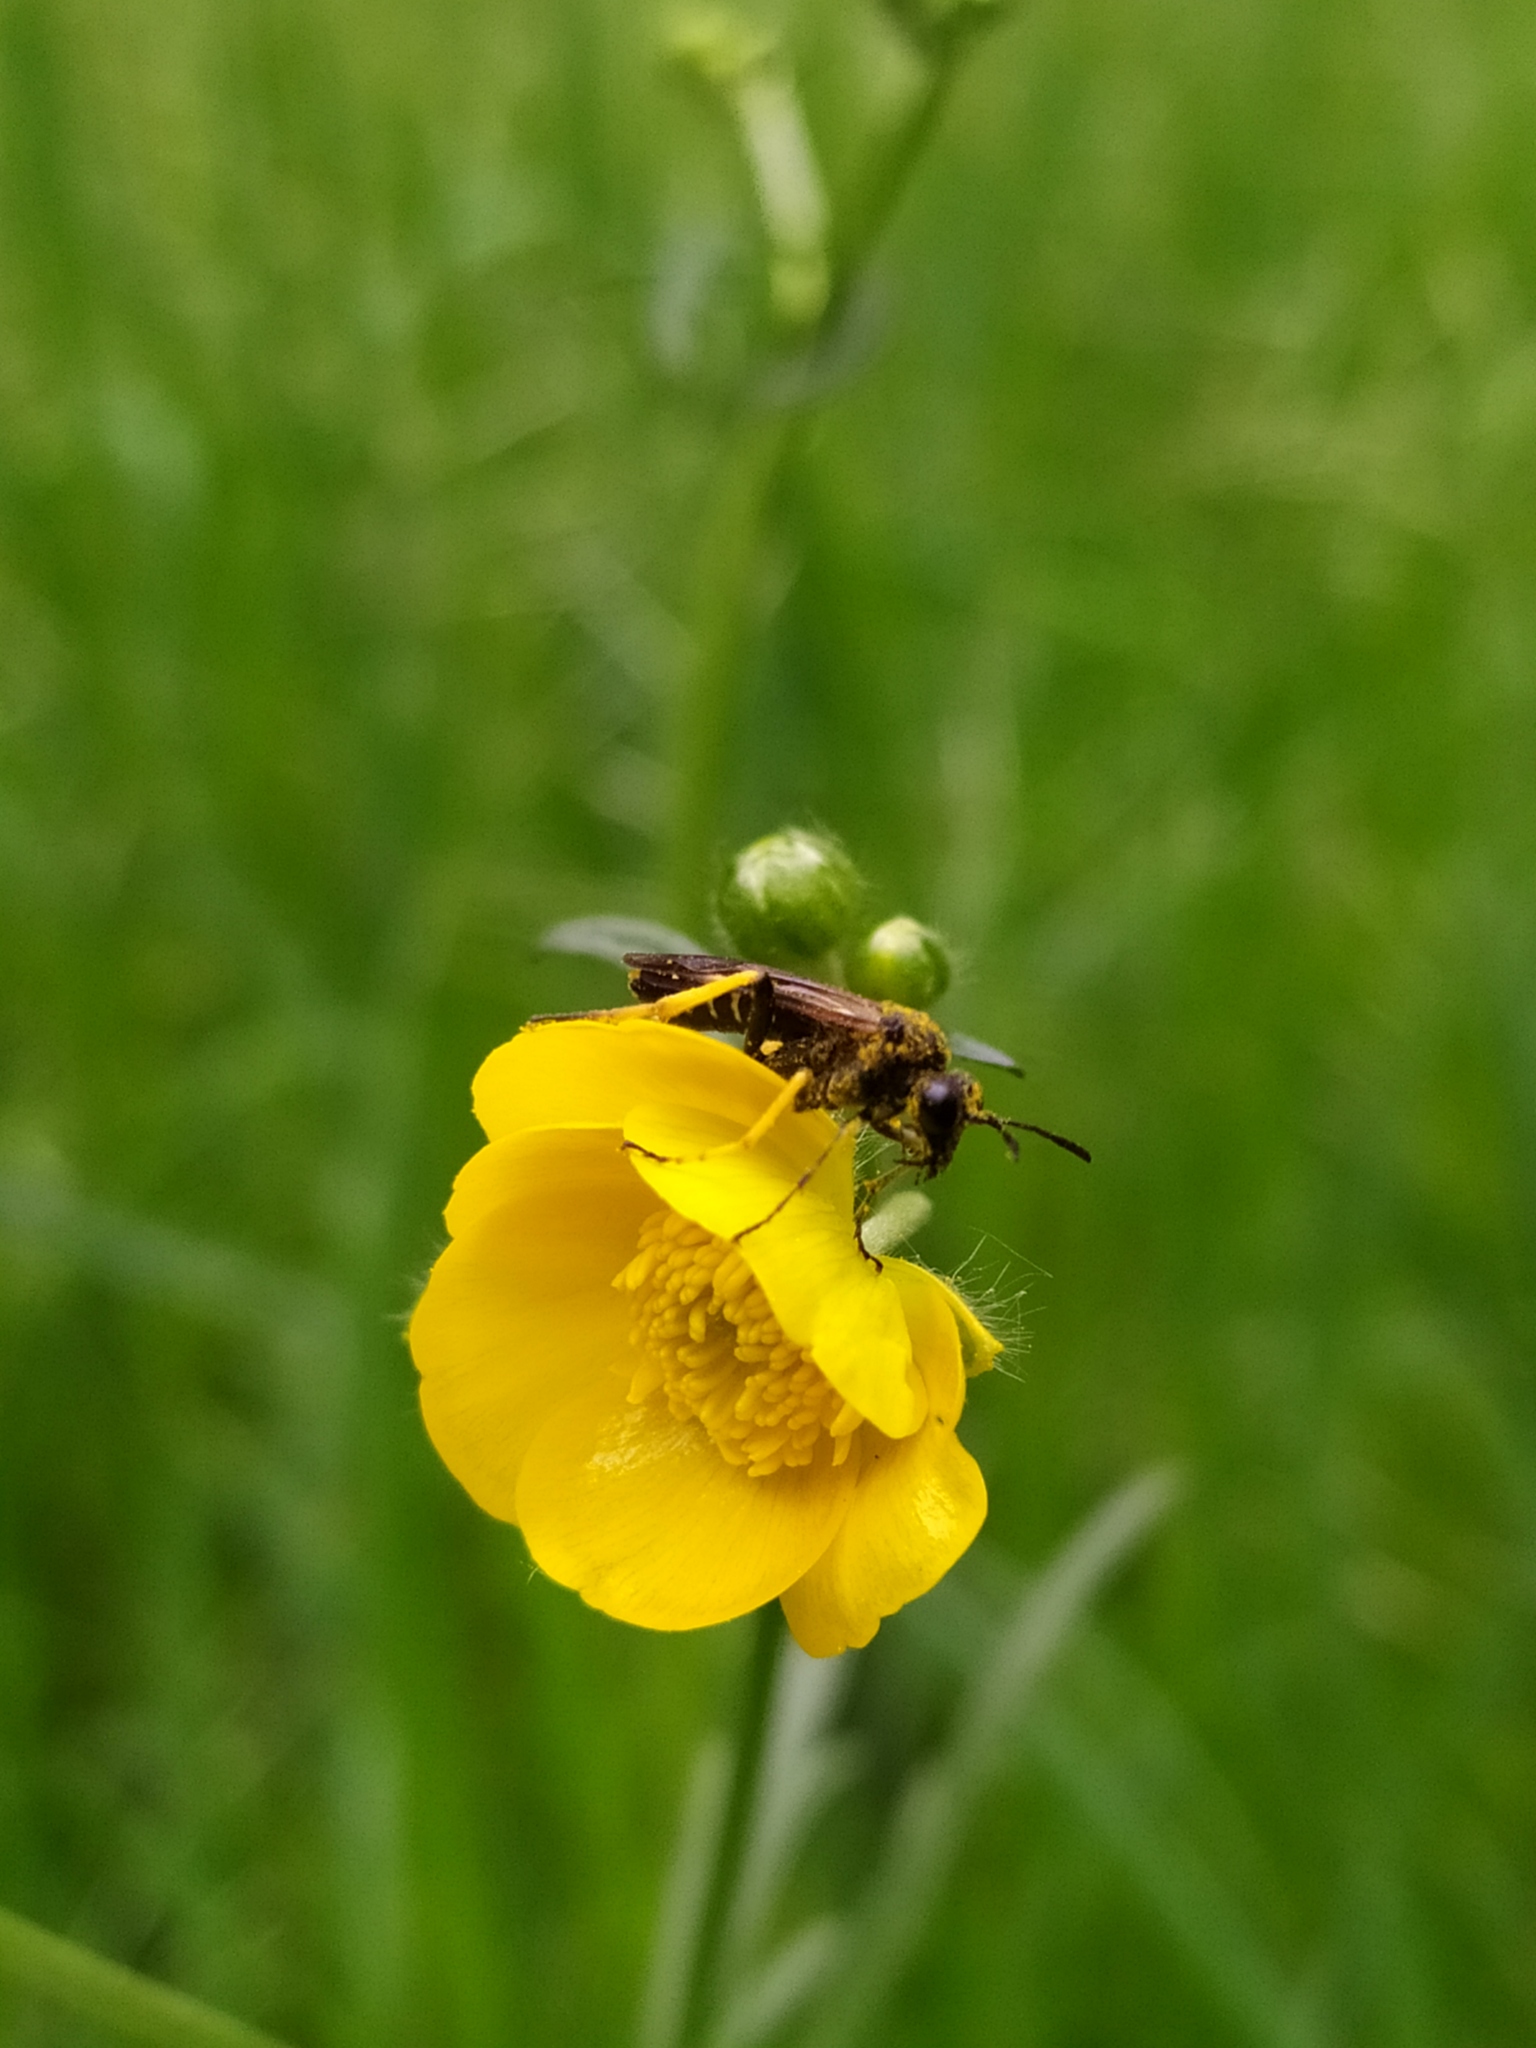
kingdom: Plantae
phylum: Tracheophyta
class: Magnoliopsida
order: Ranunculales
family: Ranunculaceae
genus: Ranunculus
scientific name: Ranunculus acris
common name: Meadow buttercup
